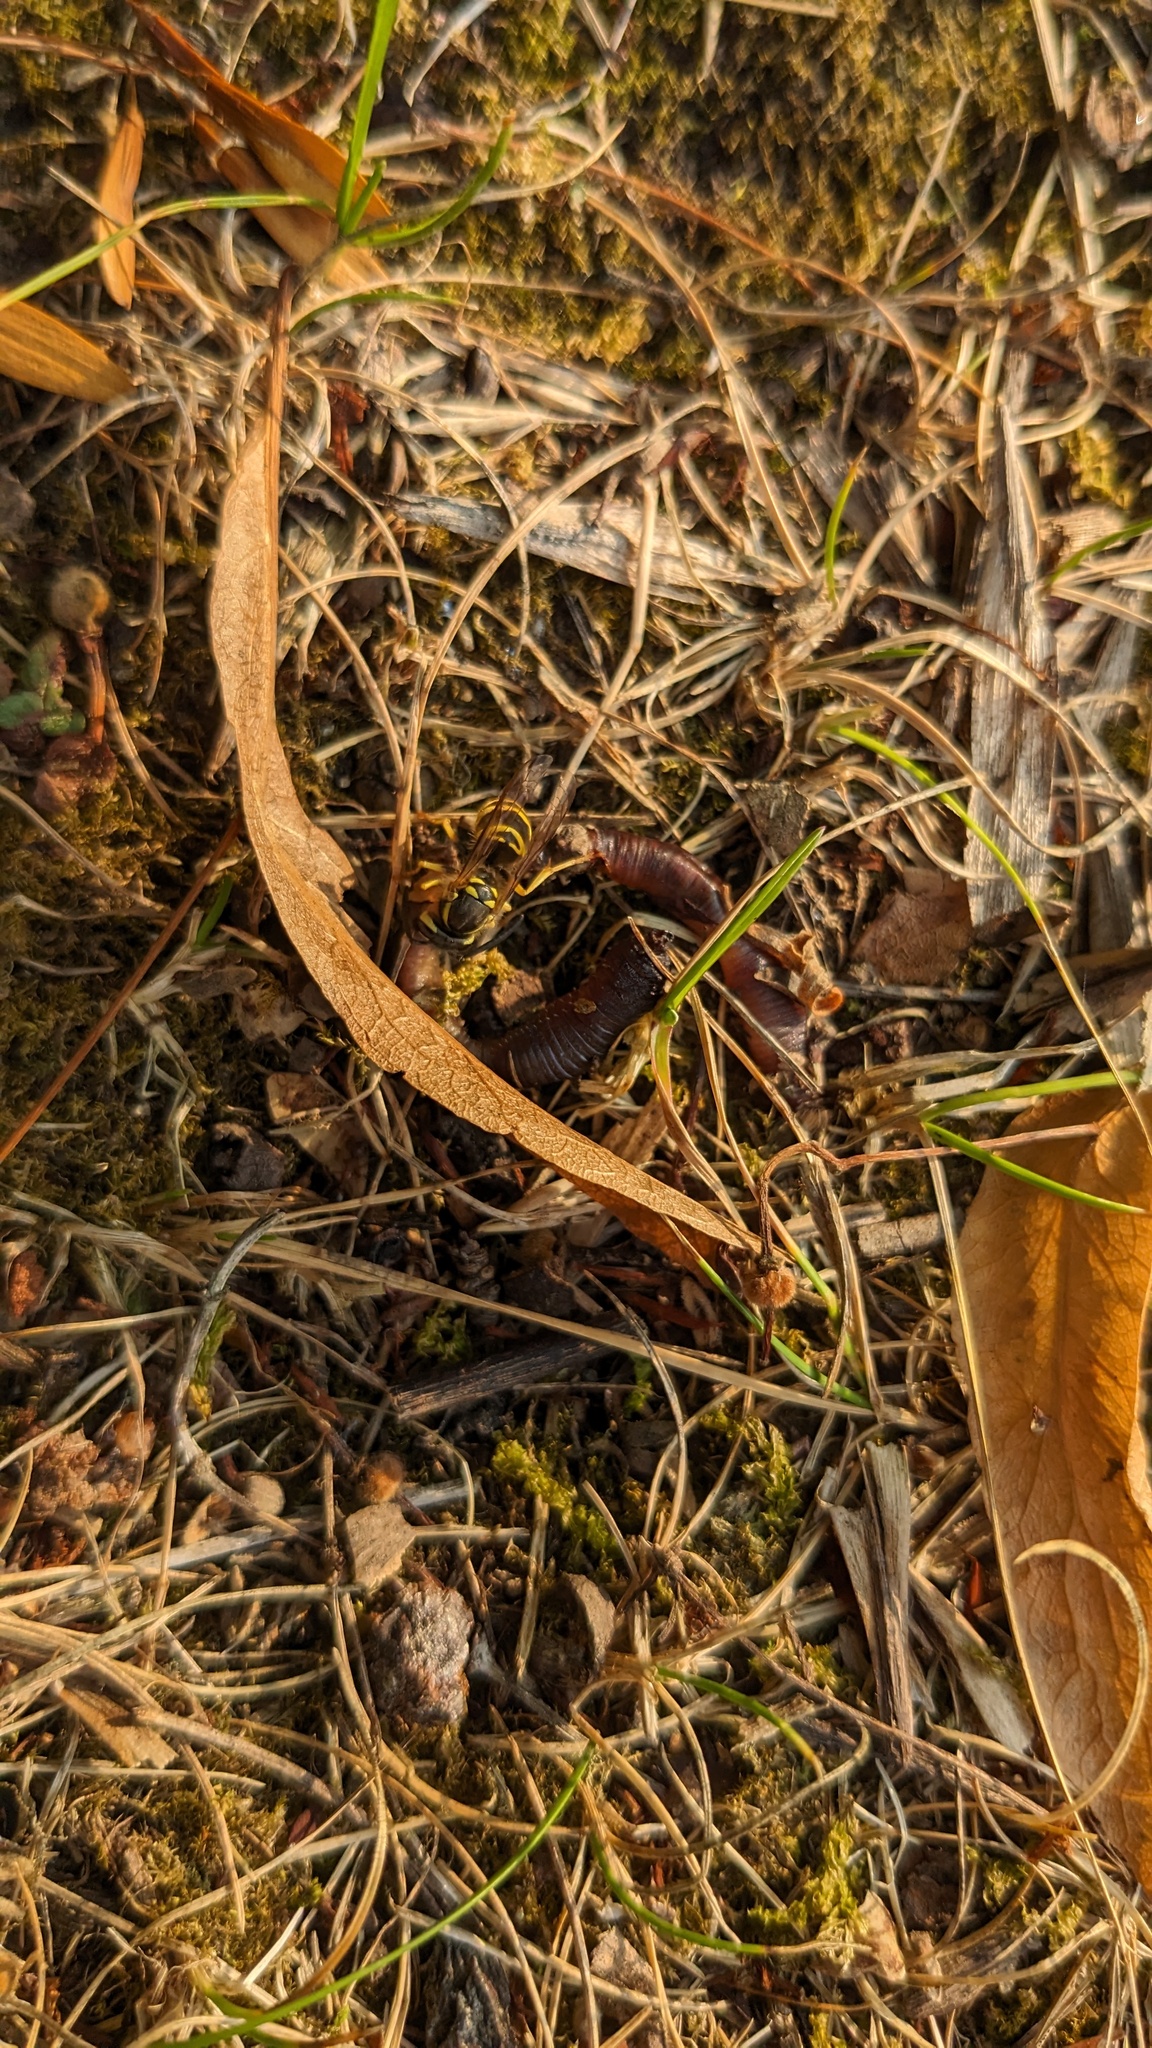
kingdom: Animalia
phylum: Arthropoda
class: Insecta
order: Hymenoptera
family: Vespidae
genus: Vespula
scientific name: Vespula maculifrons
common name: Eastern yellowjacket
